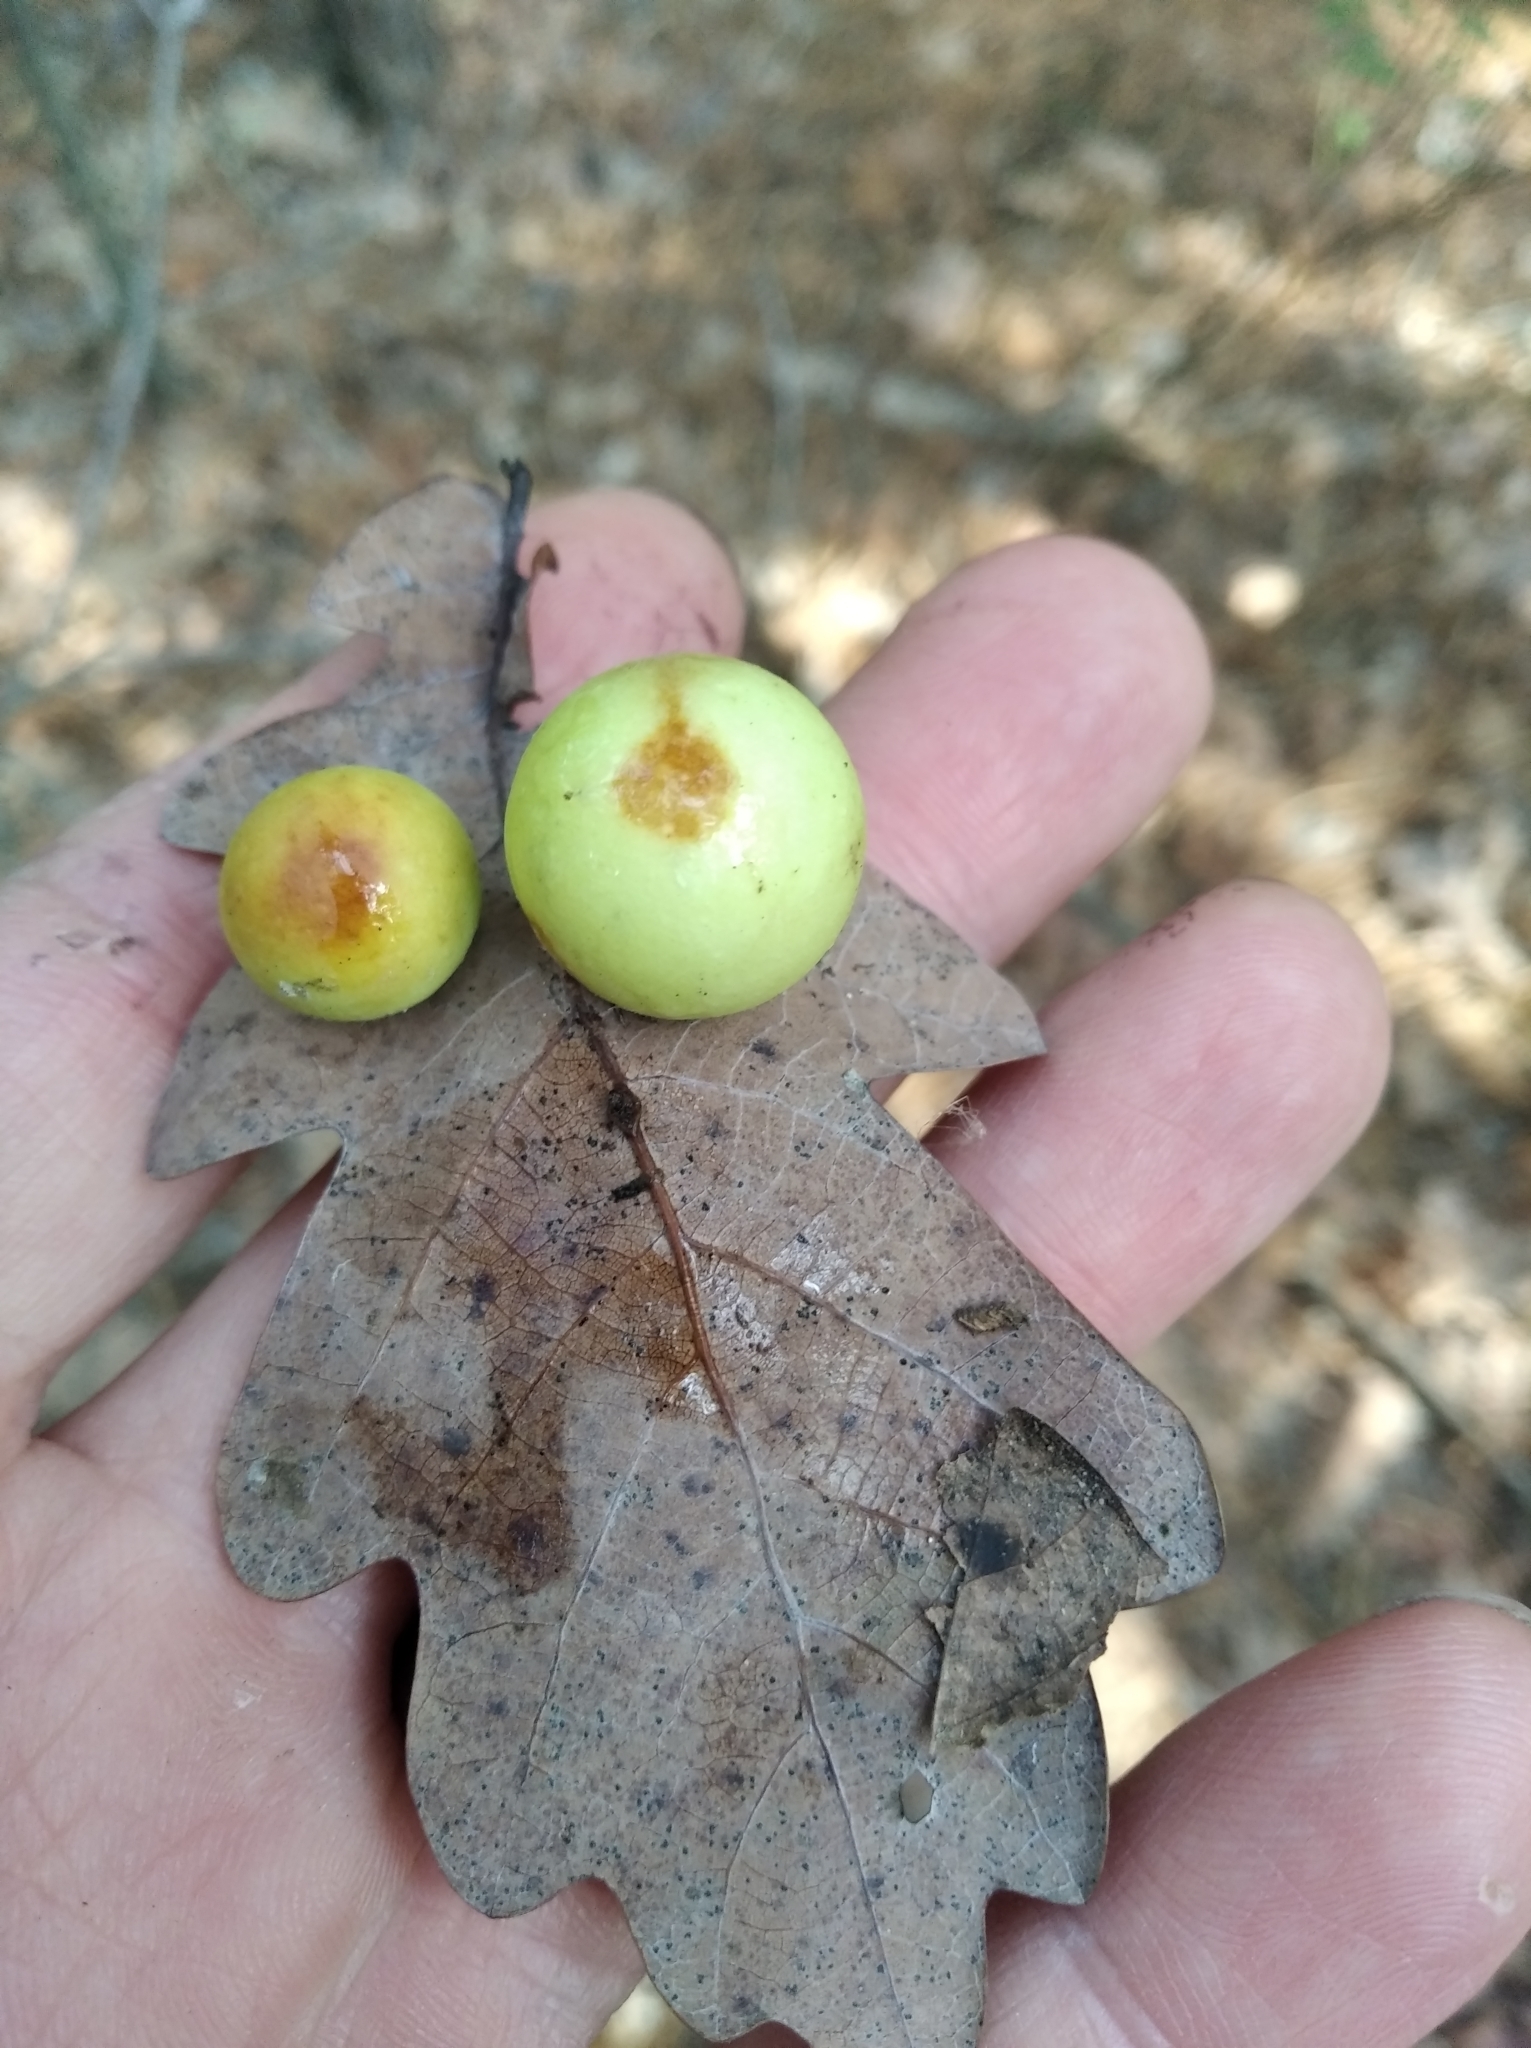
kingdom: Animalia
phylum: Arthropoda
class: Insecta
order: Hymenoptera
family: Cynipidae
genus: Cynips
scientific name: Cynips quercusfolii
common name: Cherry gall
